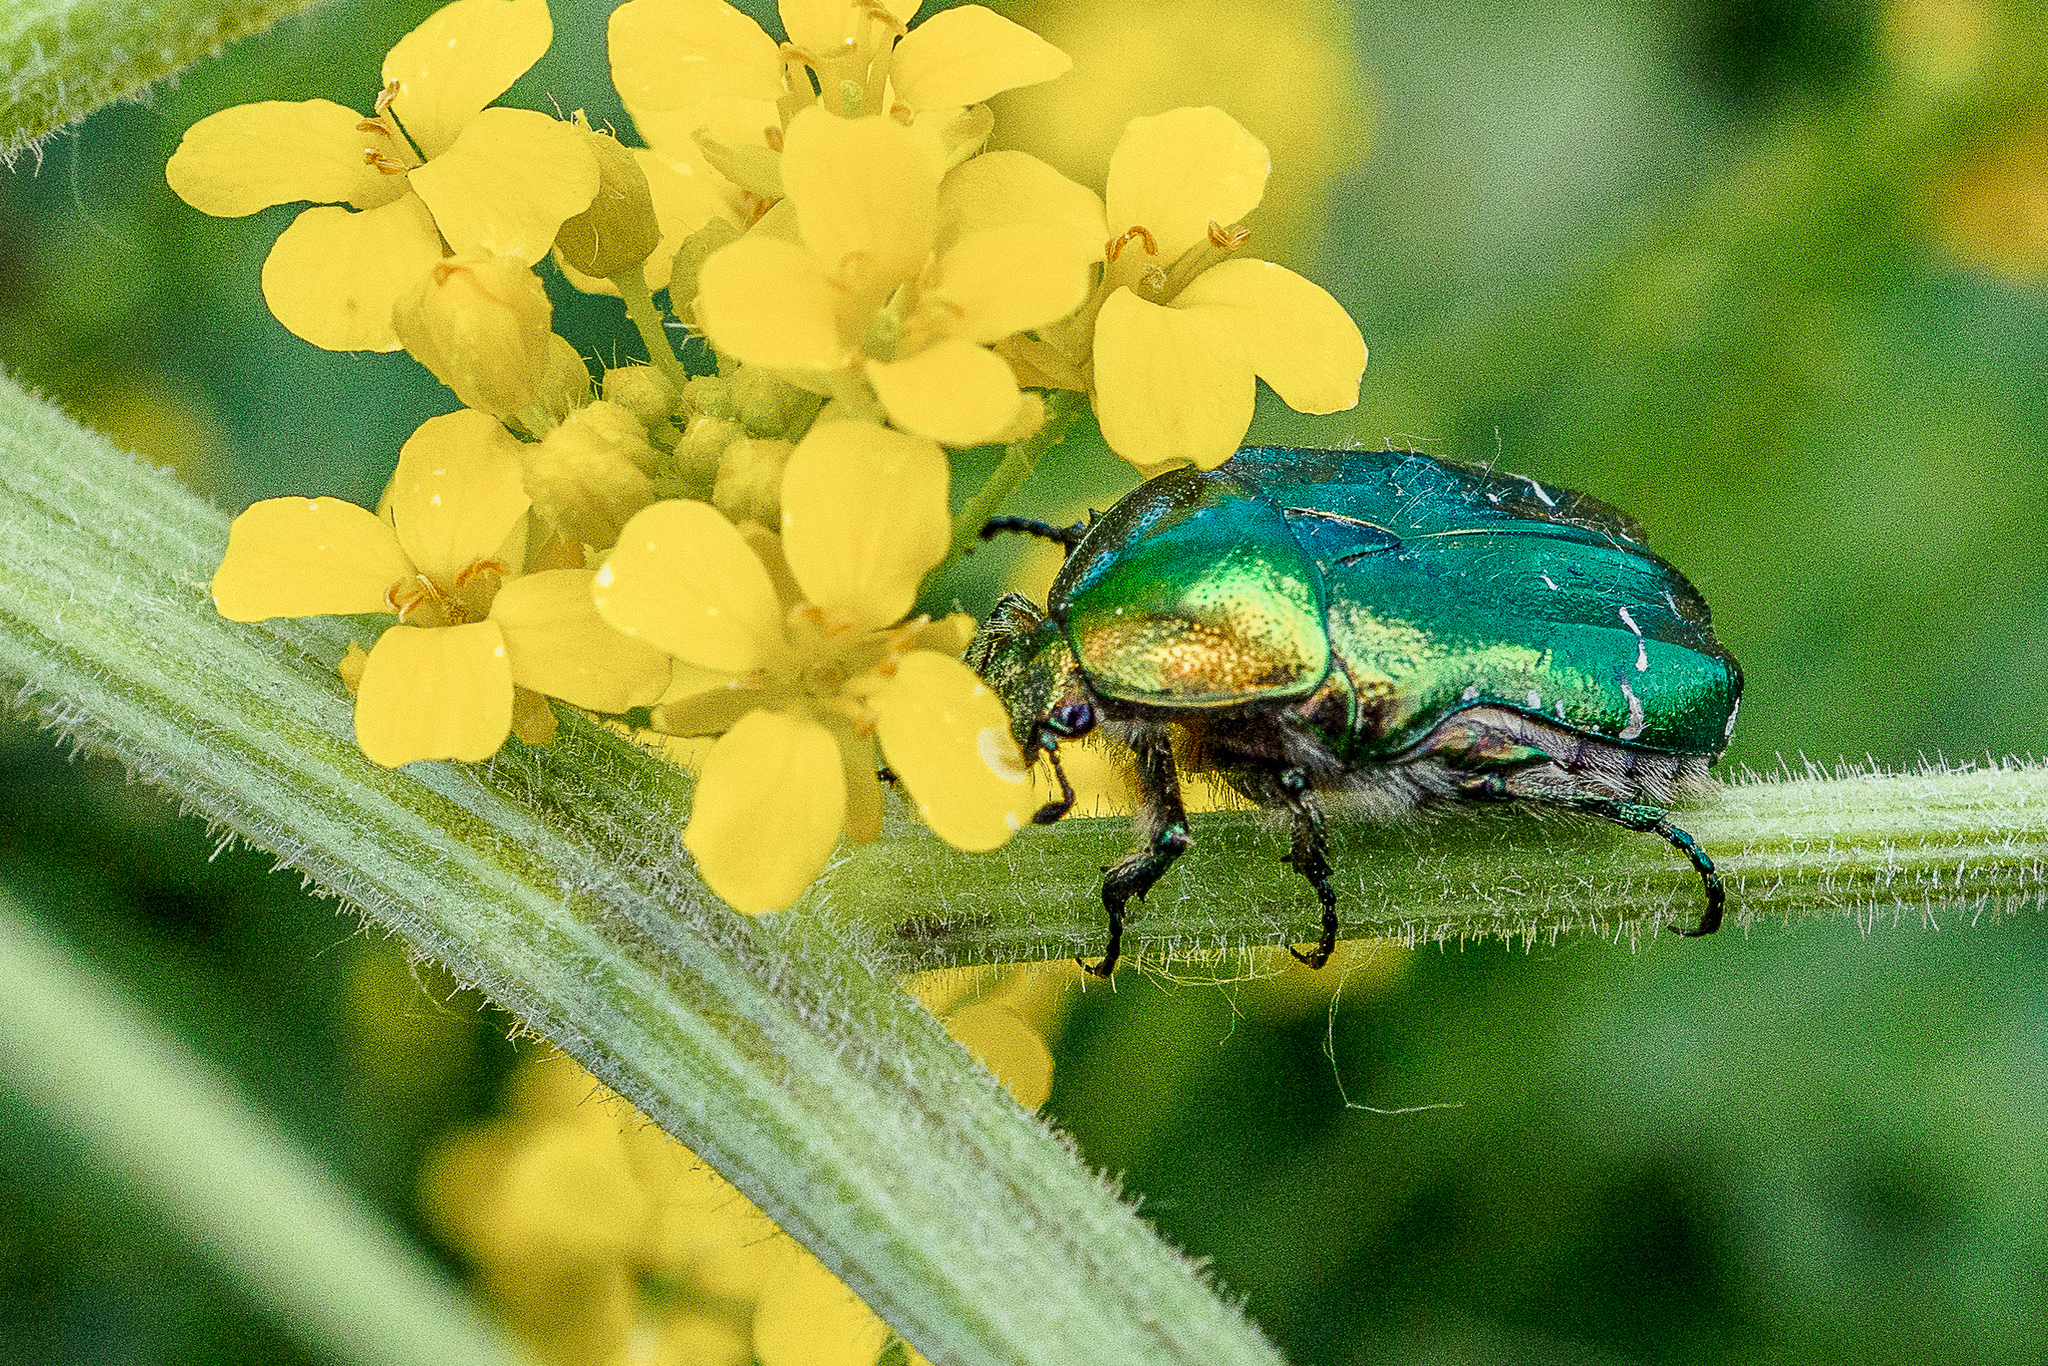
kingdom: Animalia
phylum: Arthropoda
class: Insecta
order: Coleoptera
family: Scarabaeidae
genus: Cetonia
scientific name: Cetonia aurata
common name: Rose chafer
